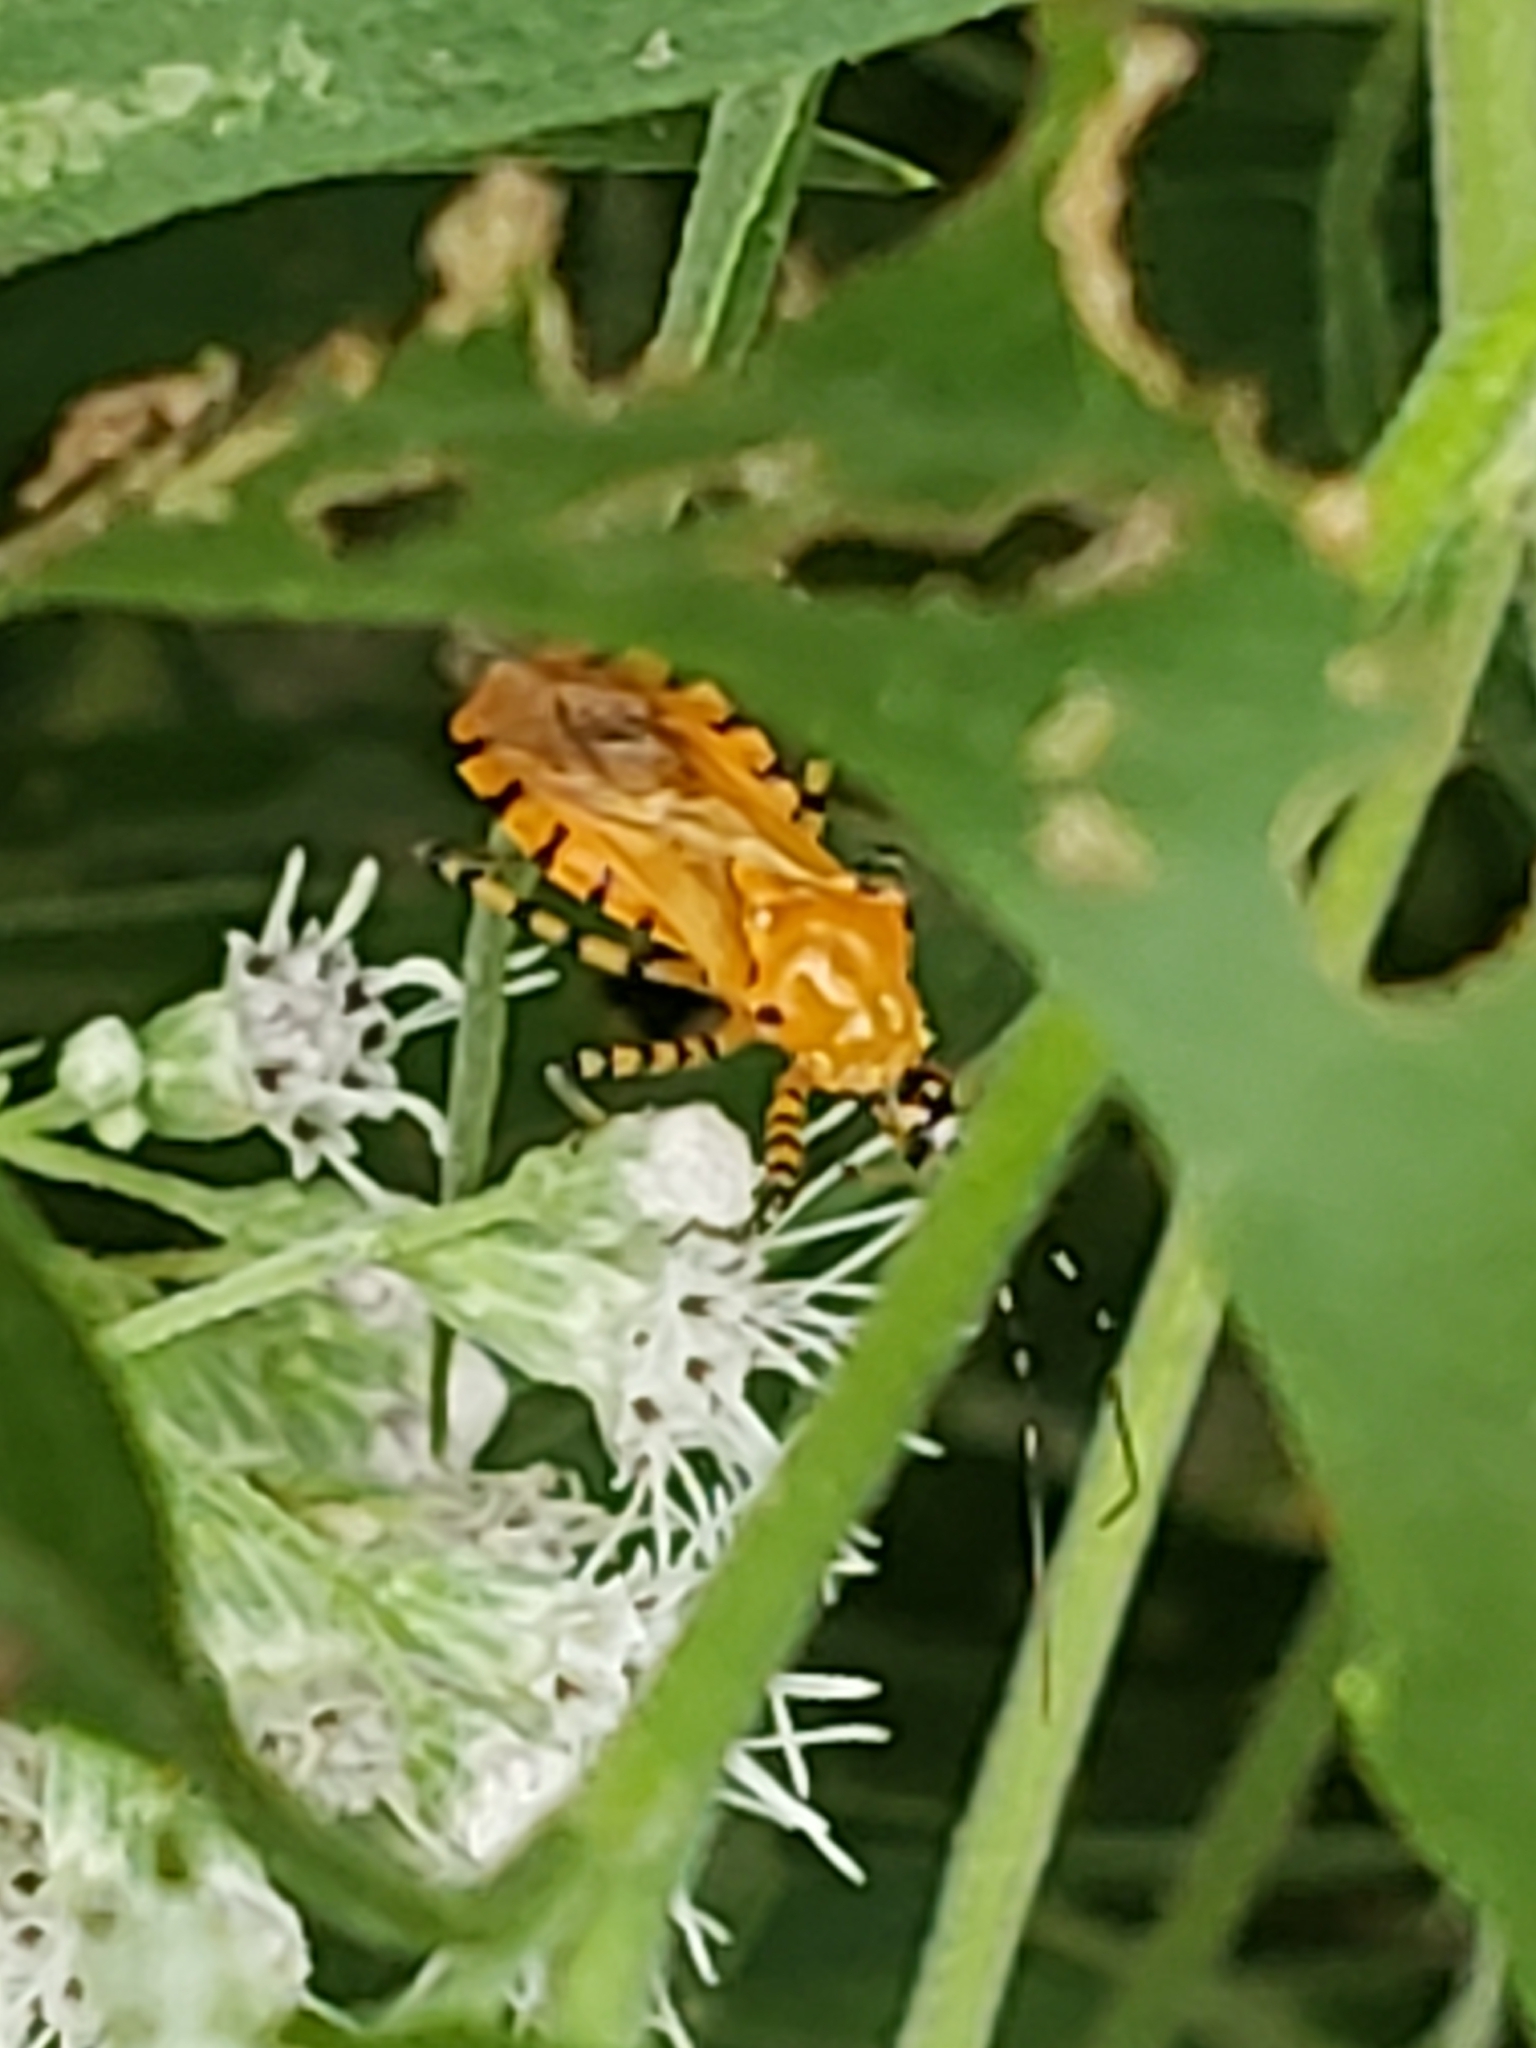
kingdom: Animalia
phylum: Arthropoda
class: Insecta
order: Hemiptera
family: Reduviidae
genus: Pselliopus
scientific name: Pselliopus barberi
